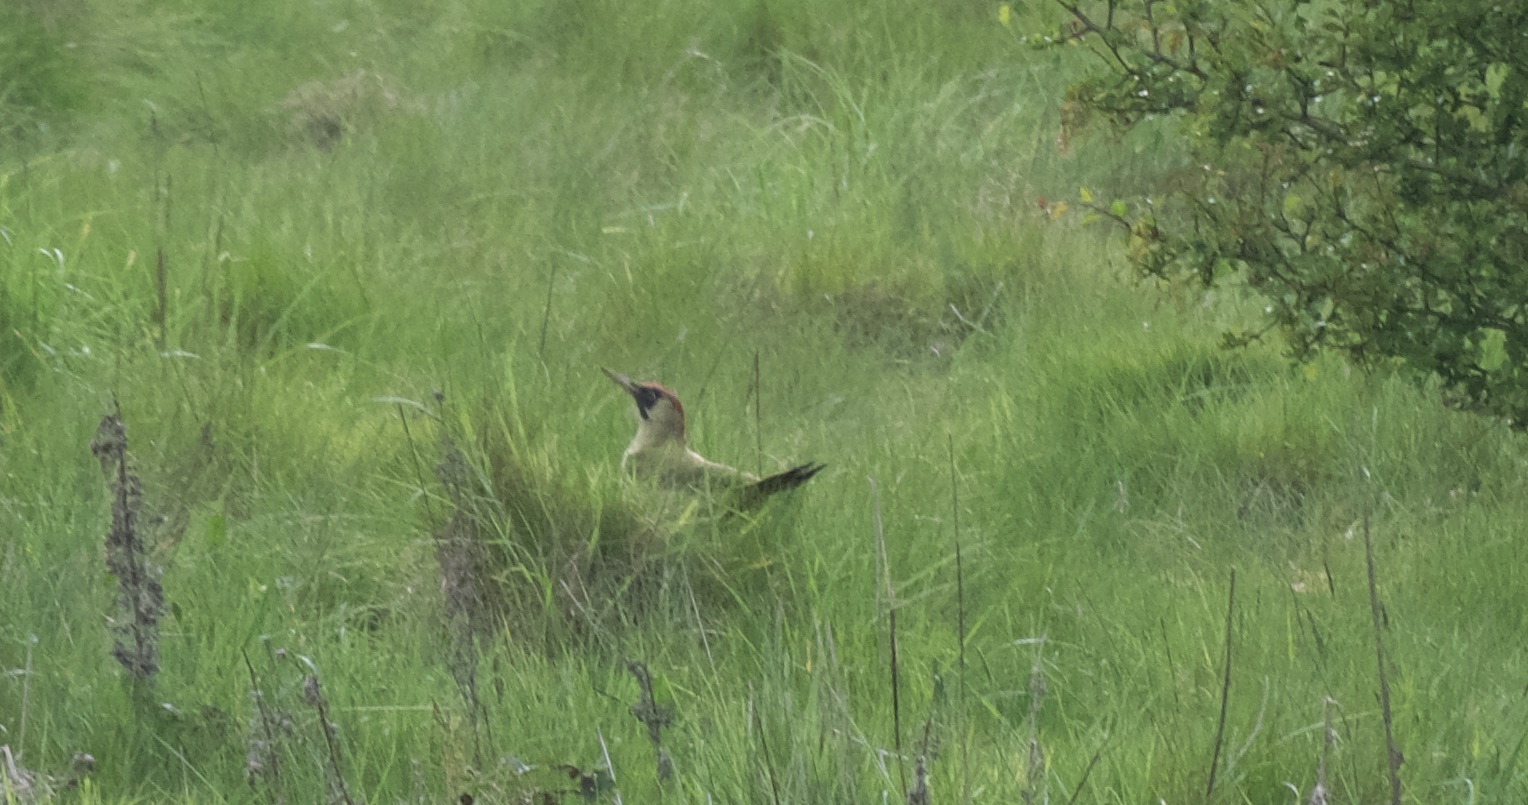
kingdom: Animalia
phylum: Chordata
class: Aves
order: Piciformes
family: Picidae
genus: Picus
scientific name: Picus viridis
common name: European green woodpecker
